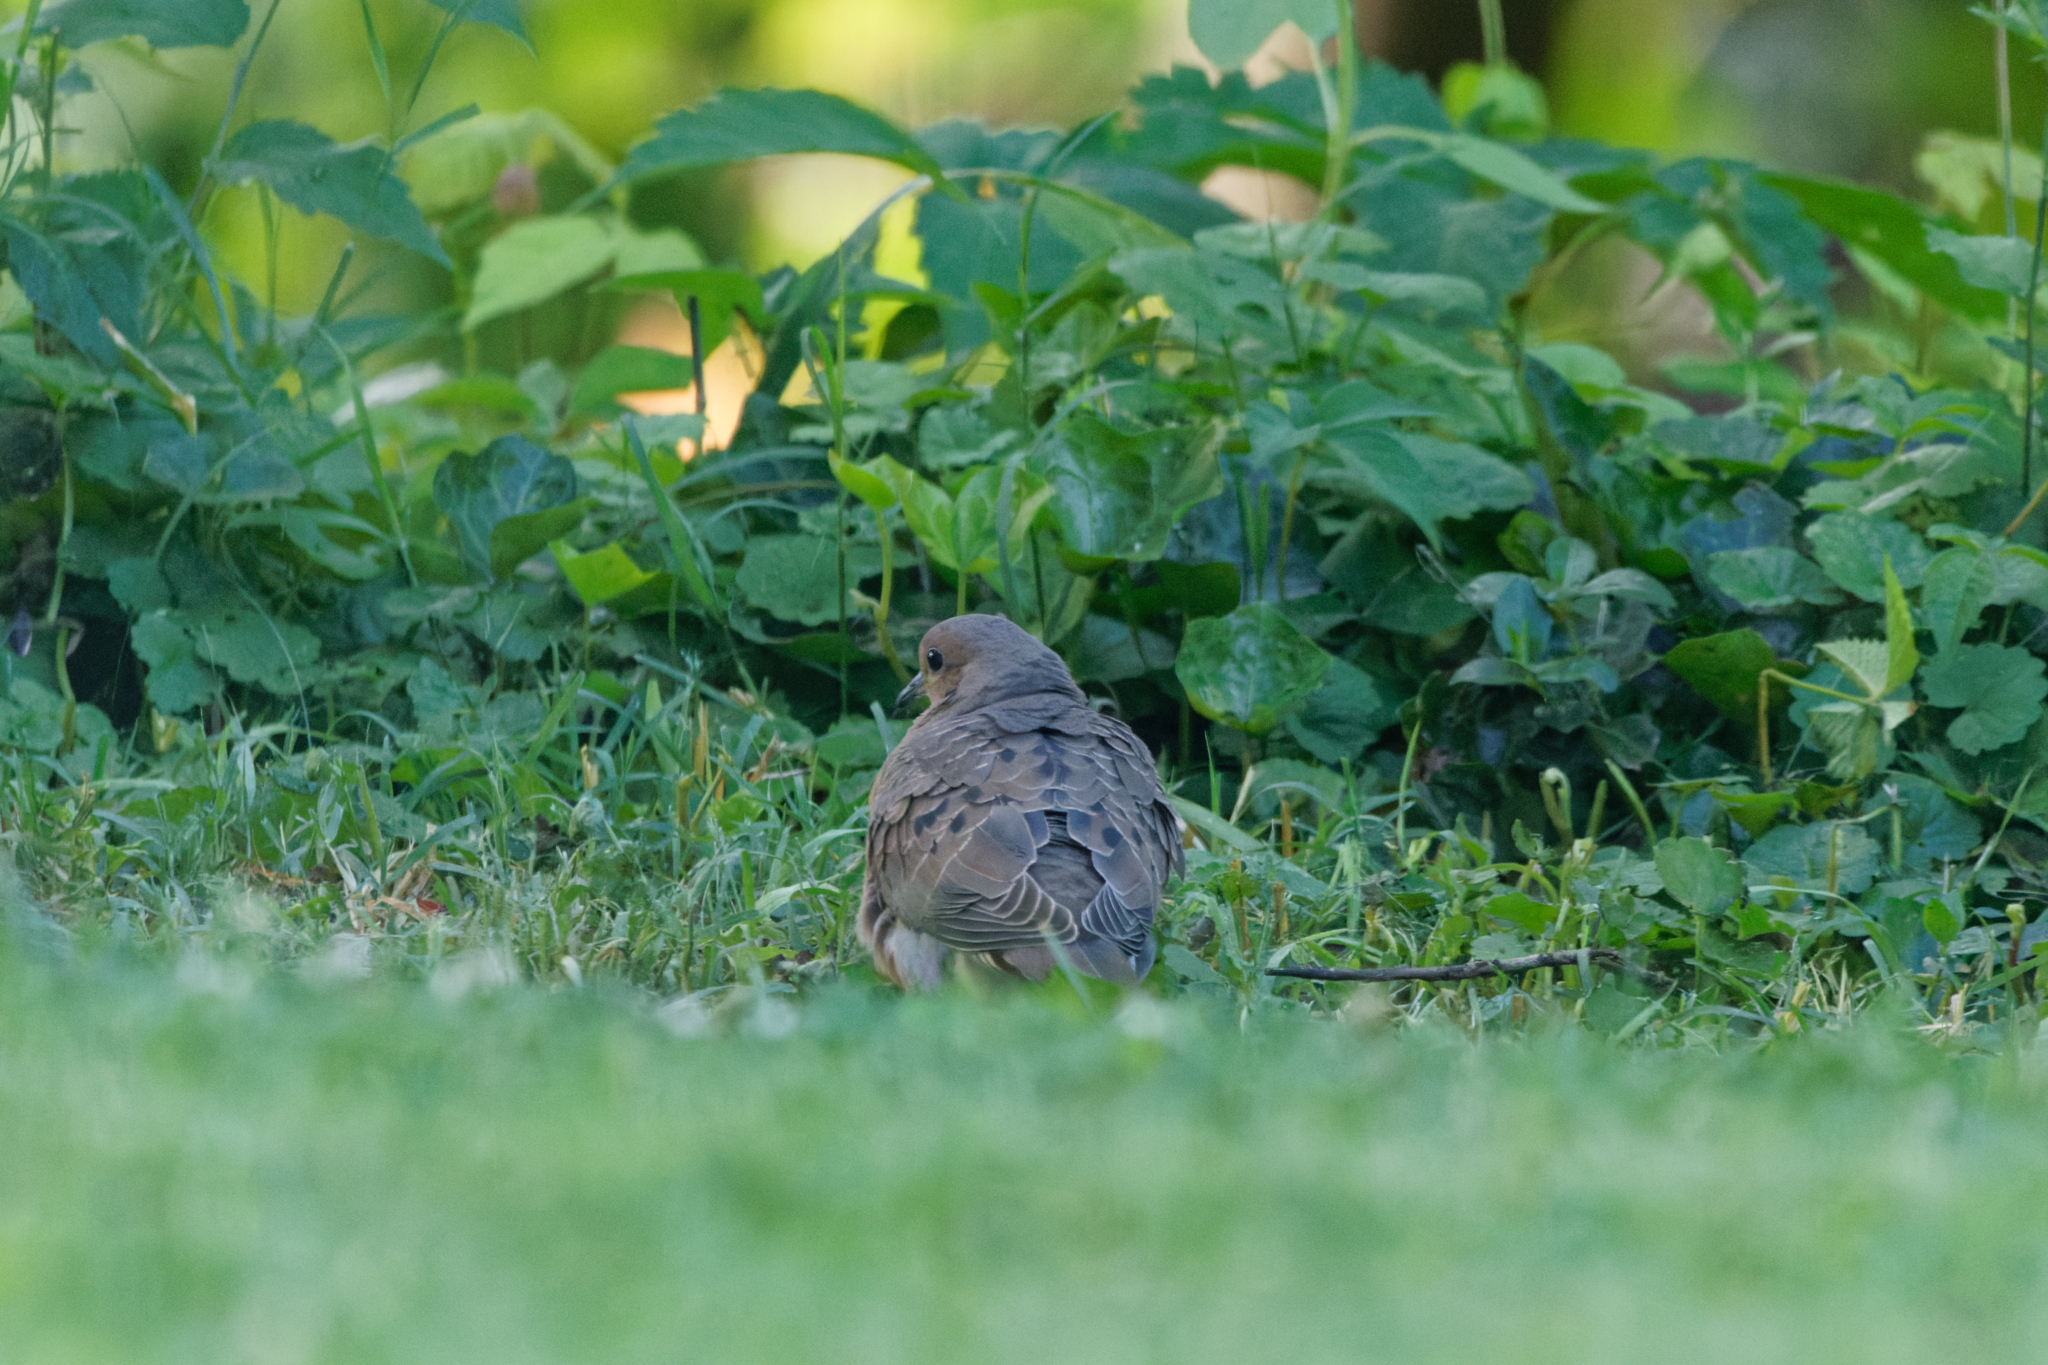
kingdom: Animalia
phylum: Chordata
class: Aves
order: Columbiformes
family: Columbidae
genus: Zenaida
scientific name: Zenaida macroura
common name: Mourning dove
